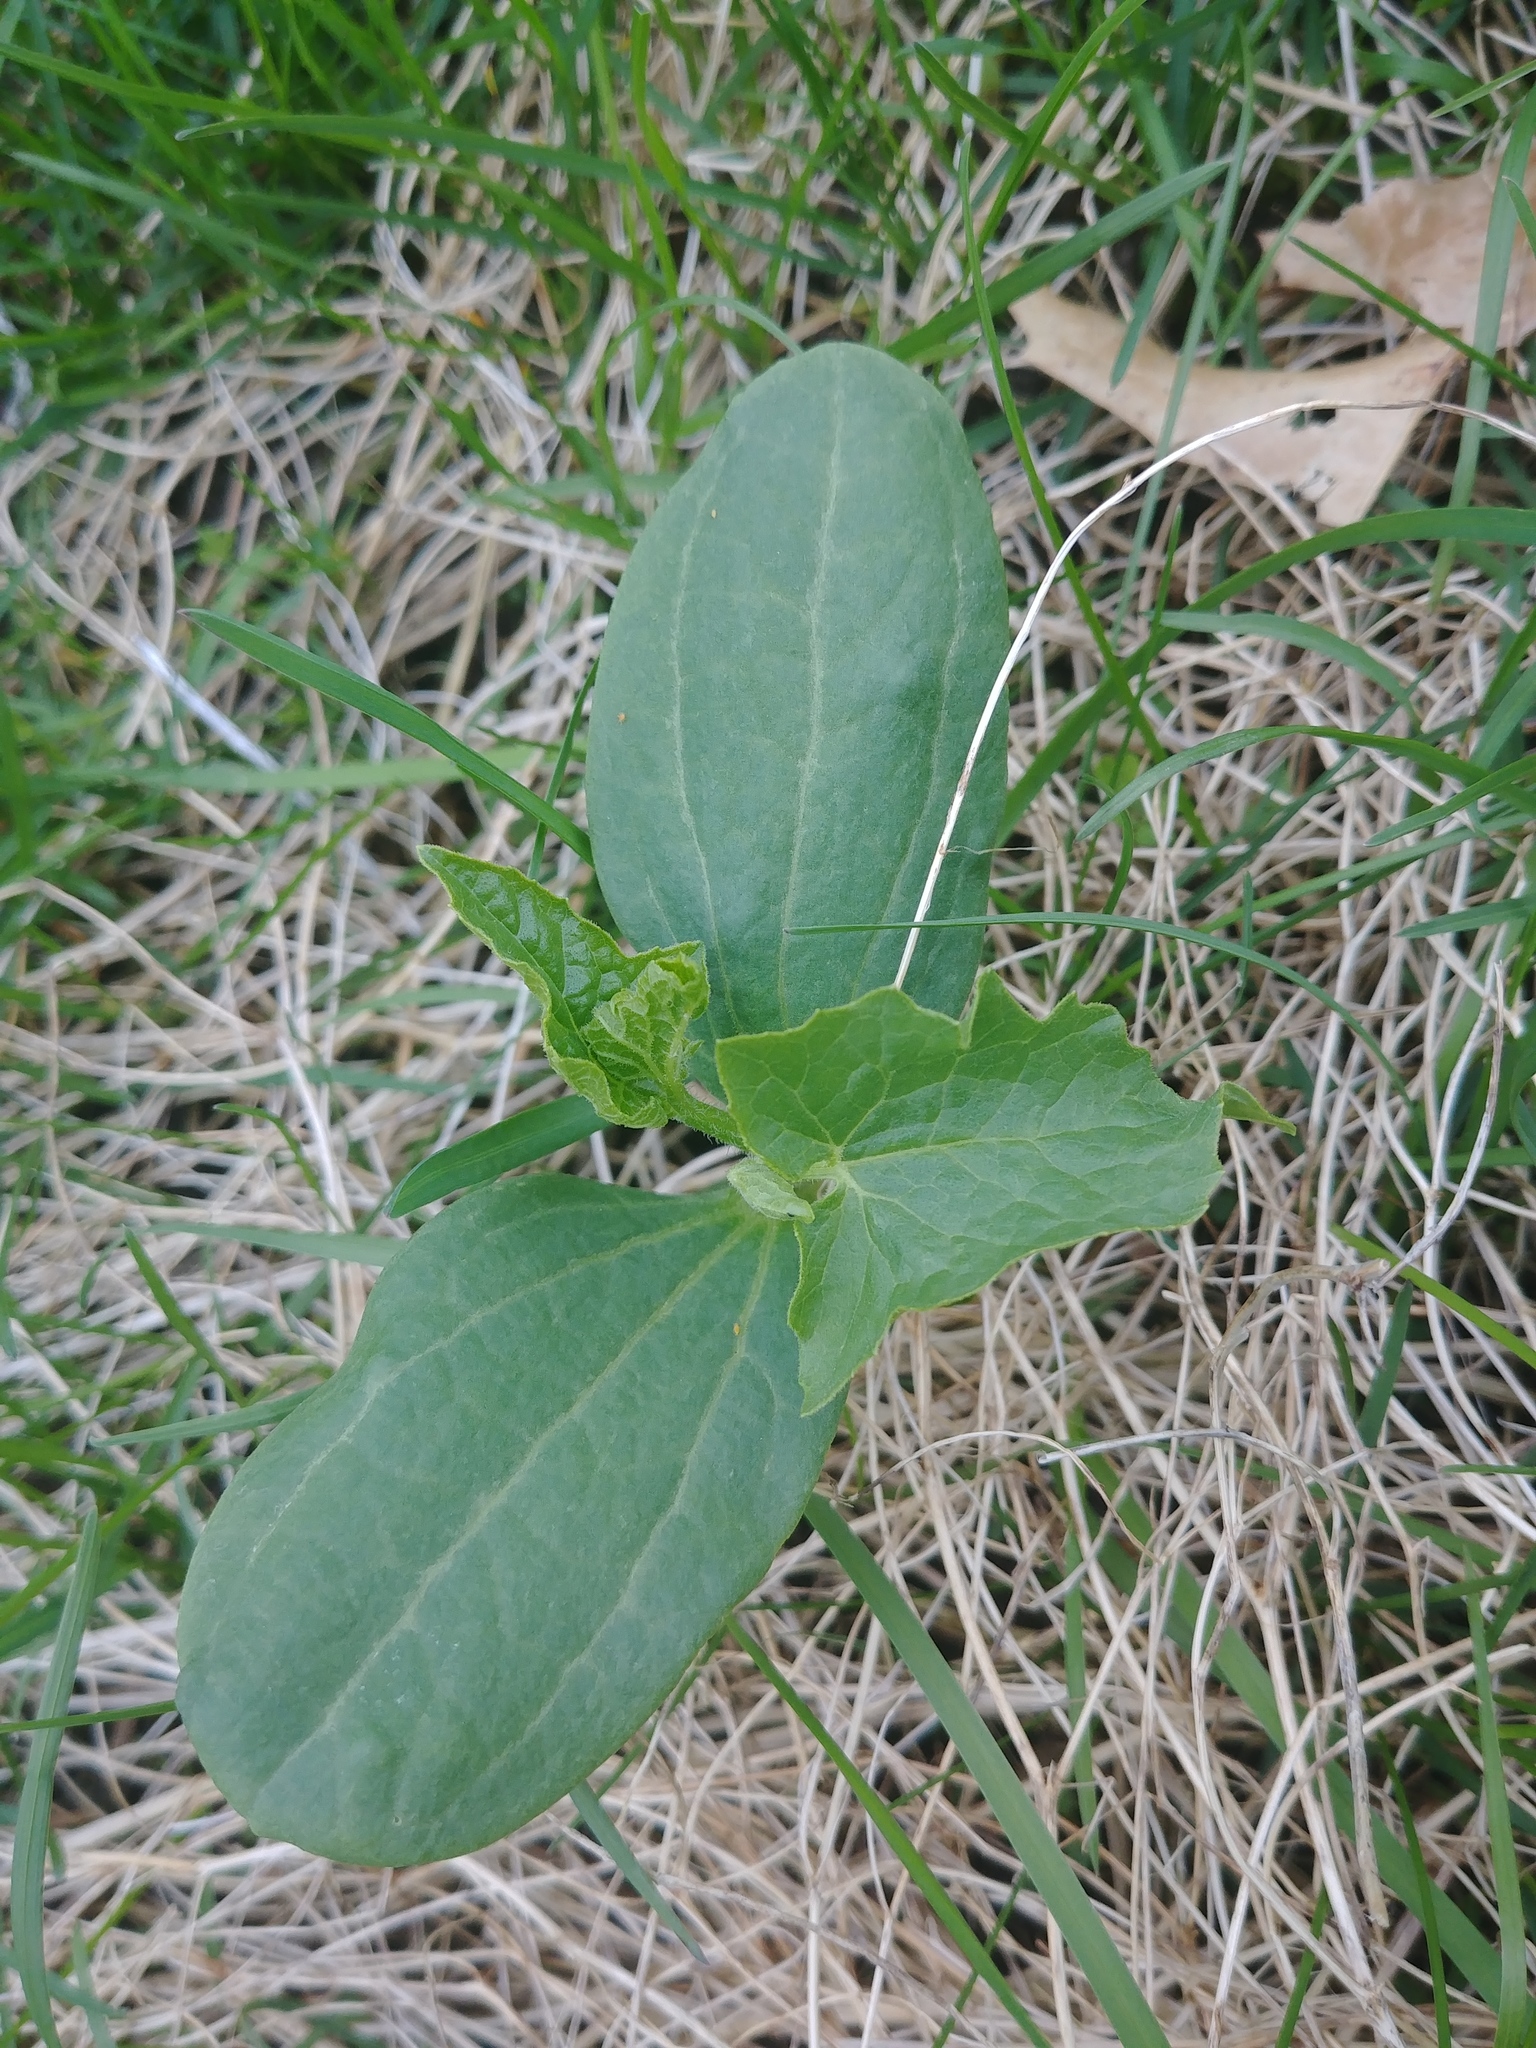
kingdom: Plantae
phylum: Tracheophyta
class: Magnoliopsida
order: Cucurbitales
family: Cucurbitaceae
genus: Echinocystis
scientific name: Echinocystis lobata
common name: Wild cucumber
